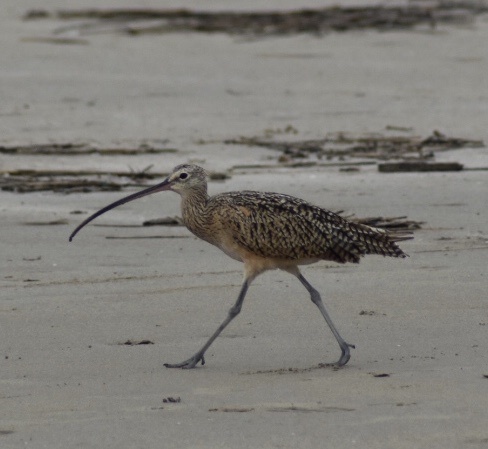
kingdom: Animalia
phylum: Chordata
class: Aves
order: Charadriiformes
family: Scolopacidae
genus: Numenius
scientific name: Numenius americanus
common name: Long-billed curlew
